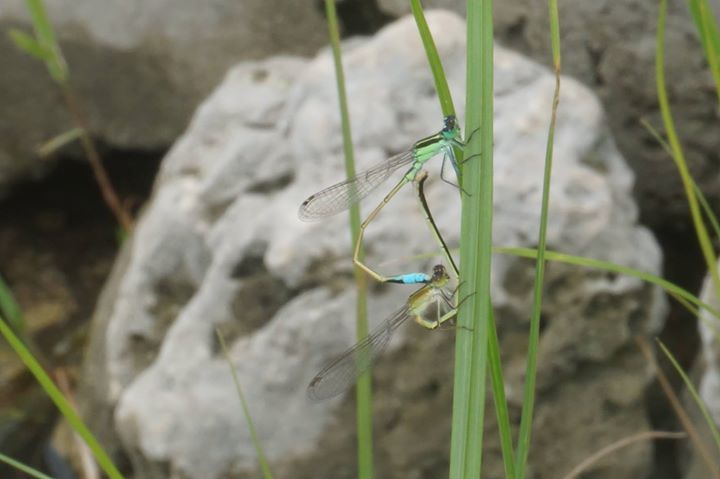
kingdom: Animalia
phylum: Arthropoda
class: Insecta
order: Odonata
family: Coenagrionidae
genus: Ischnura
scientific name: Ischnura ramburii
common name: Rambur's forktail
